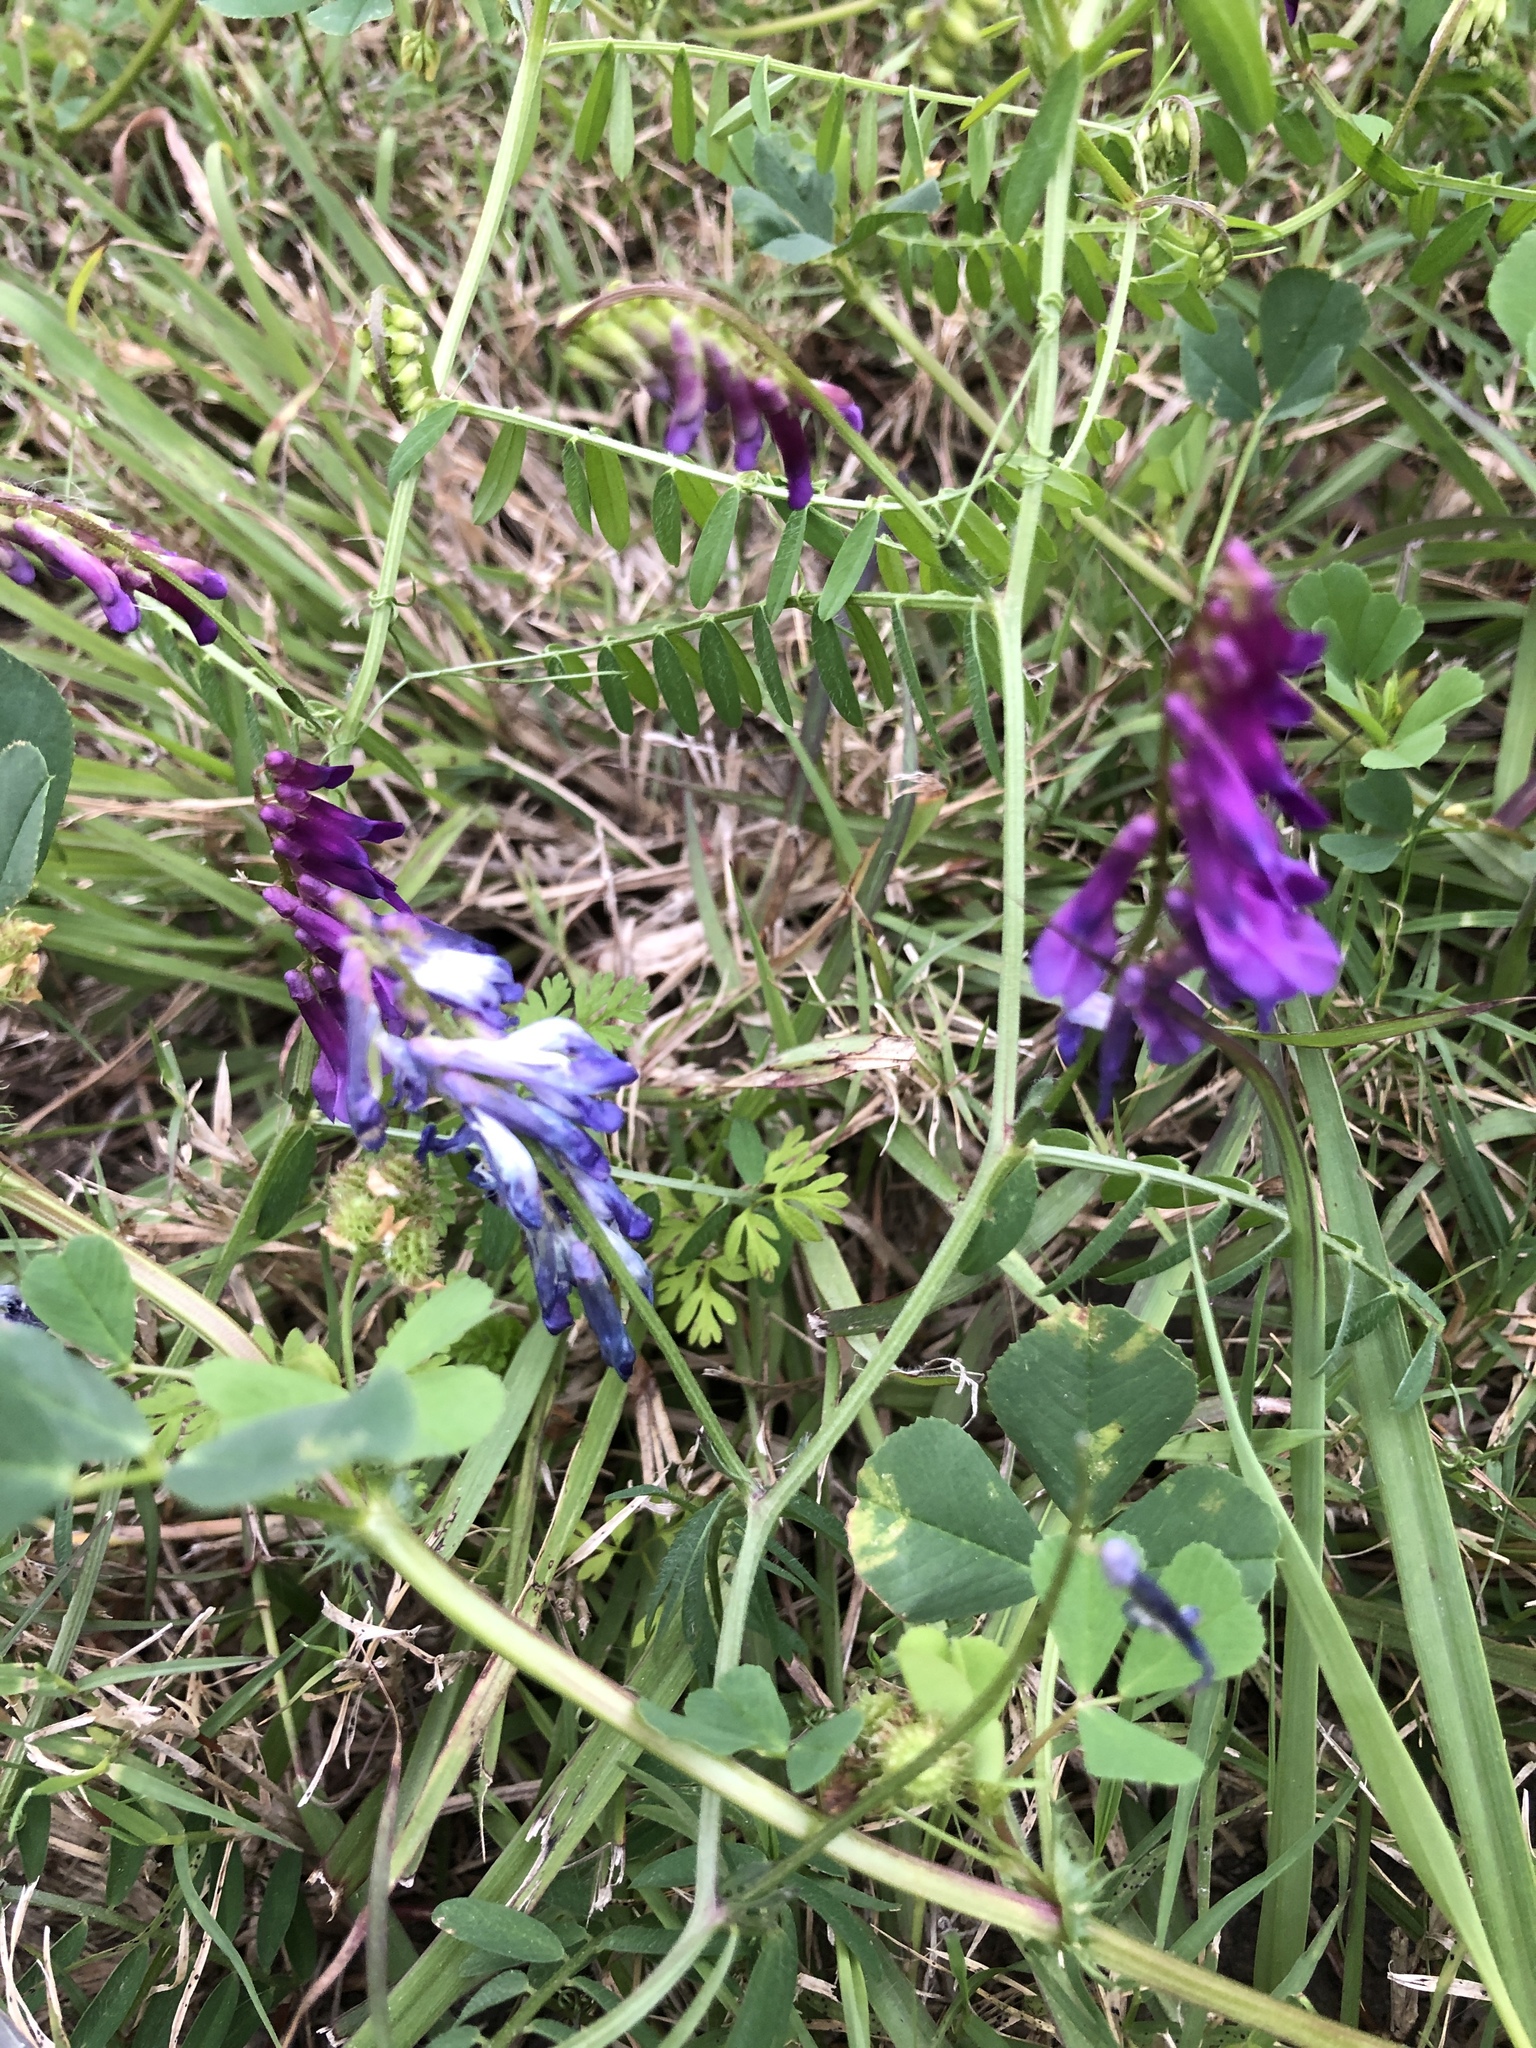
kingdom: Plantae
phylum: Tracheophyta
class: Magnoliopsida
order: Fabales
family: Fabaceae
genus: Vicia
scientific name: Vicia villosa
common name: Fodder vetch
